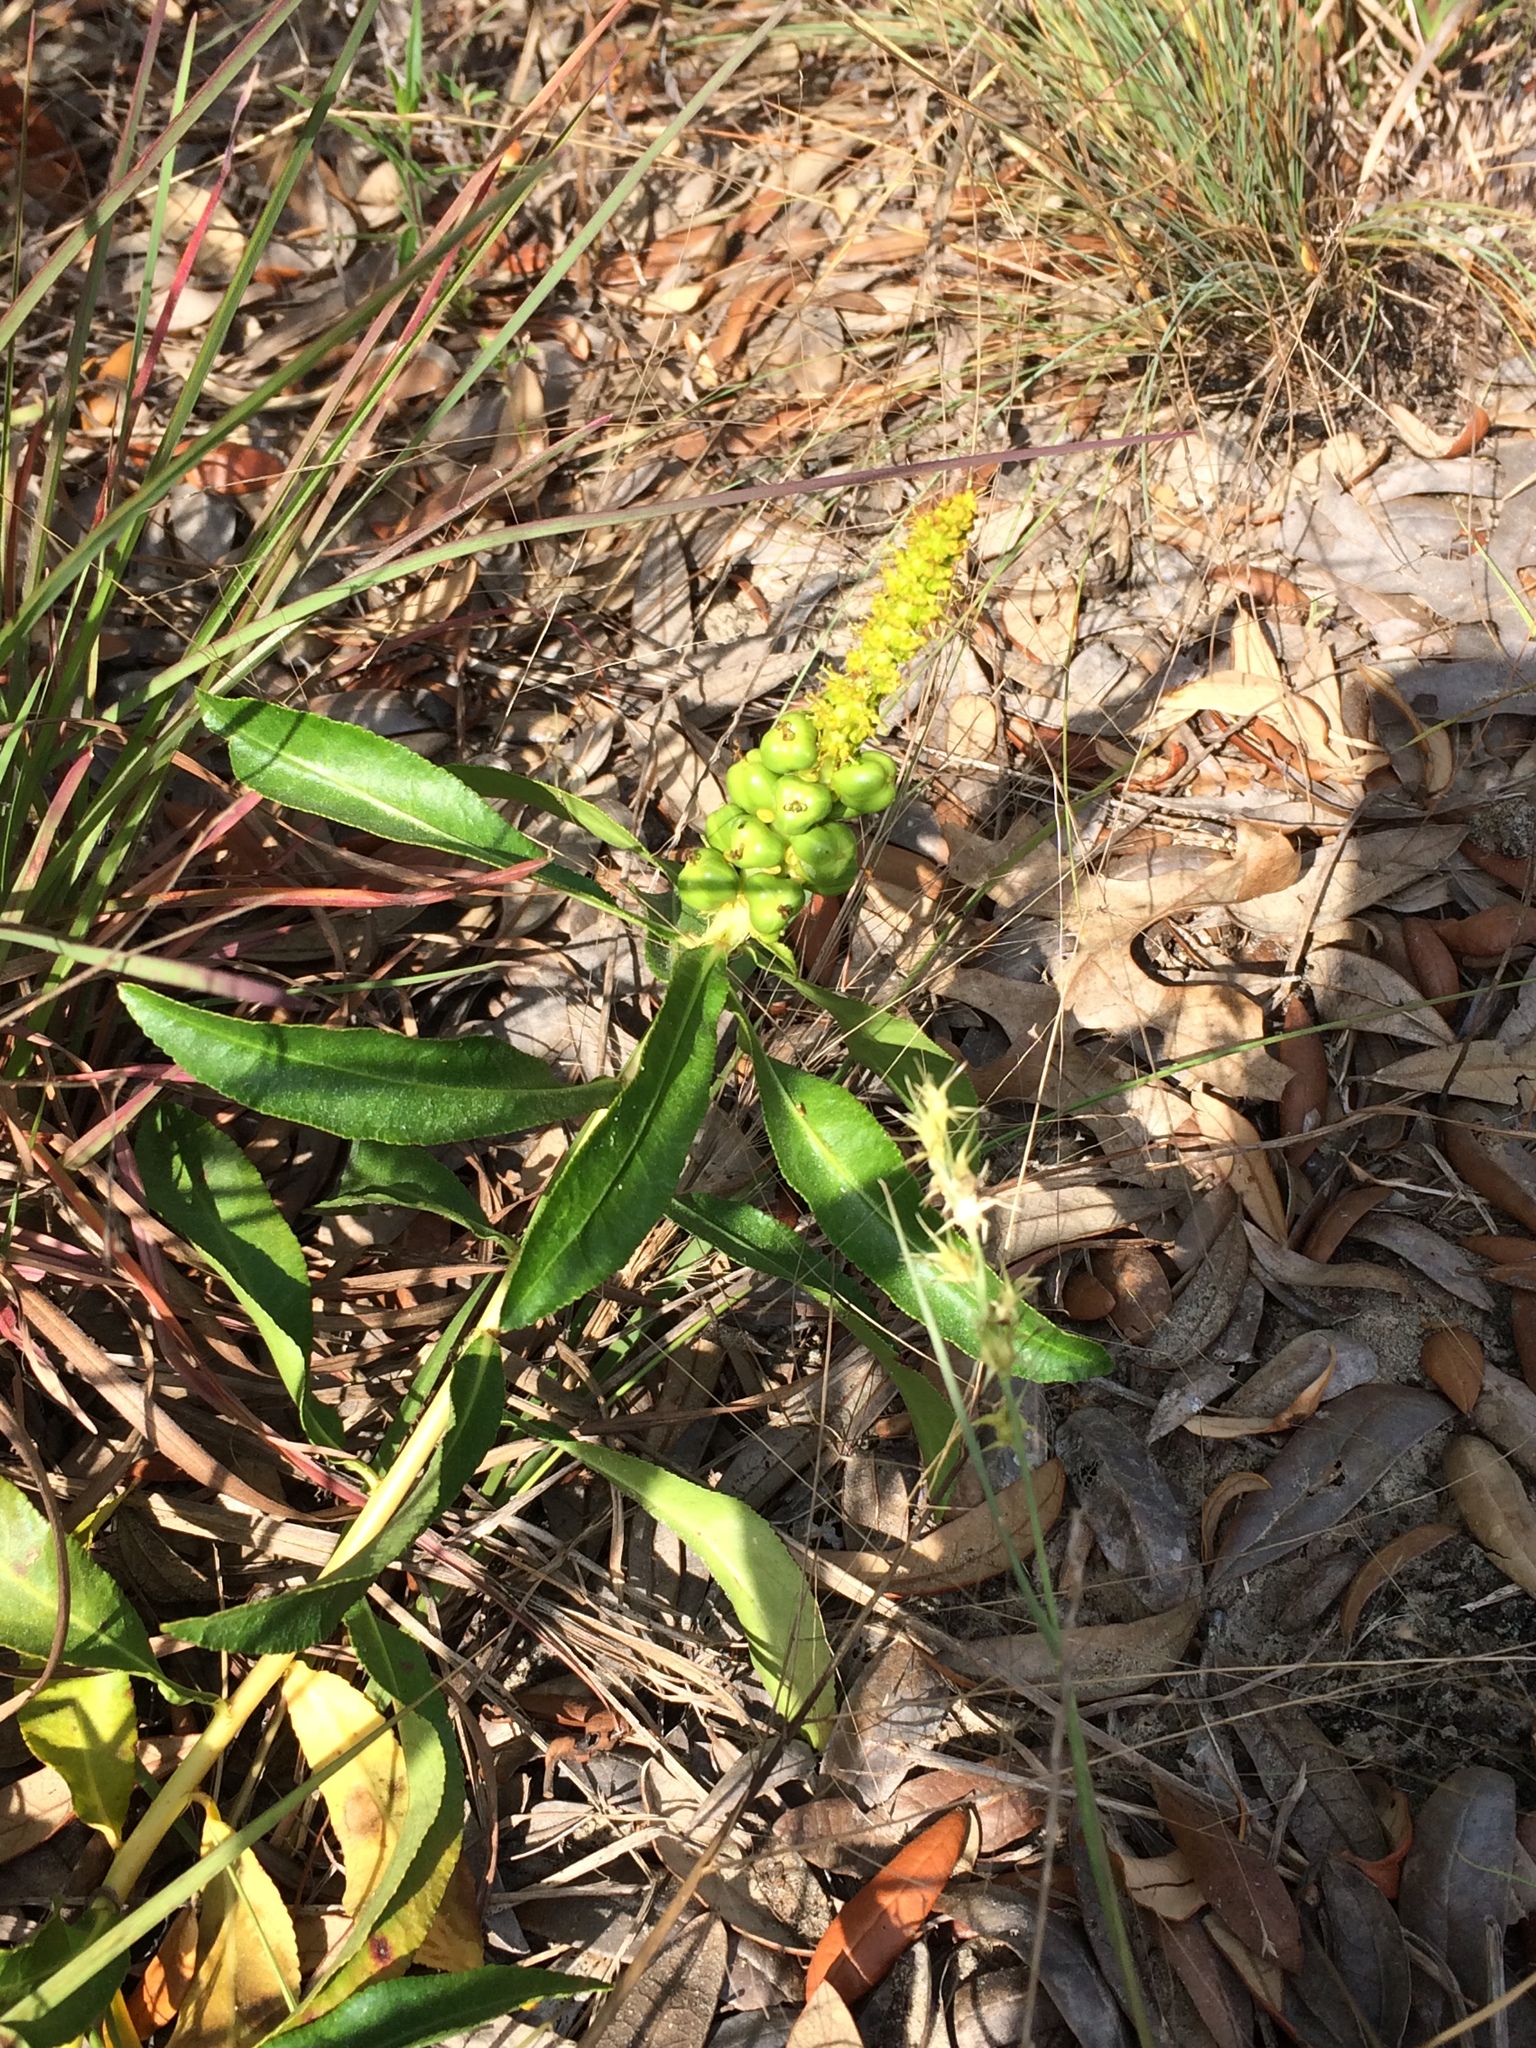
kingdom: Plantae
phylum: Tracheophyta
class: Magnoliopsida
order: Malpighiales
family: Euphorbiaceae
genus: Stillingia
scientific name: Stillingia sylvatica
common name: Queen's-delight
